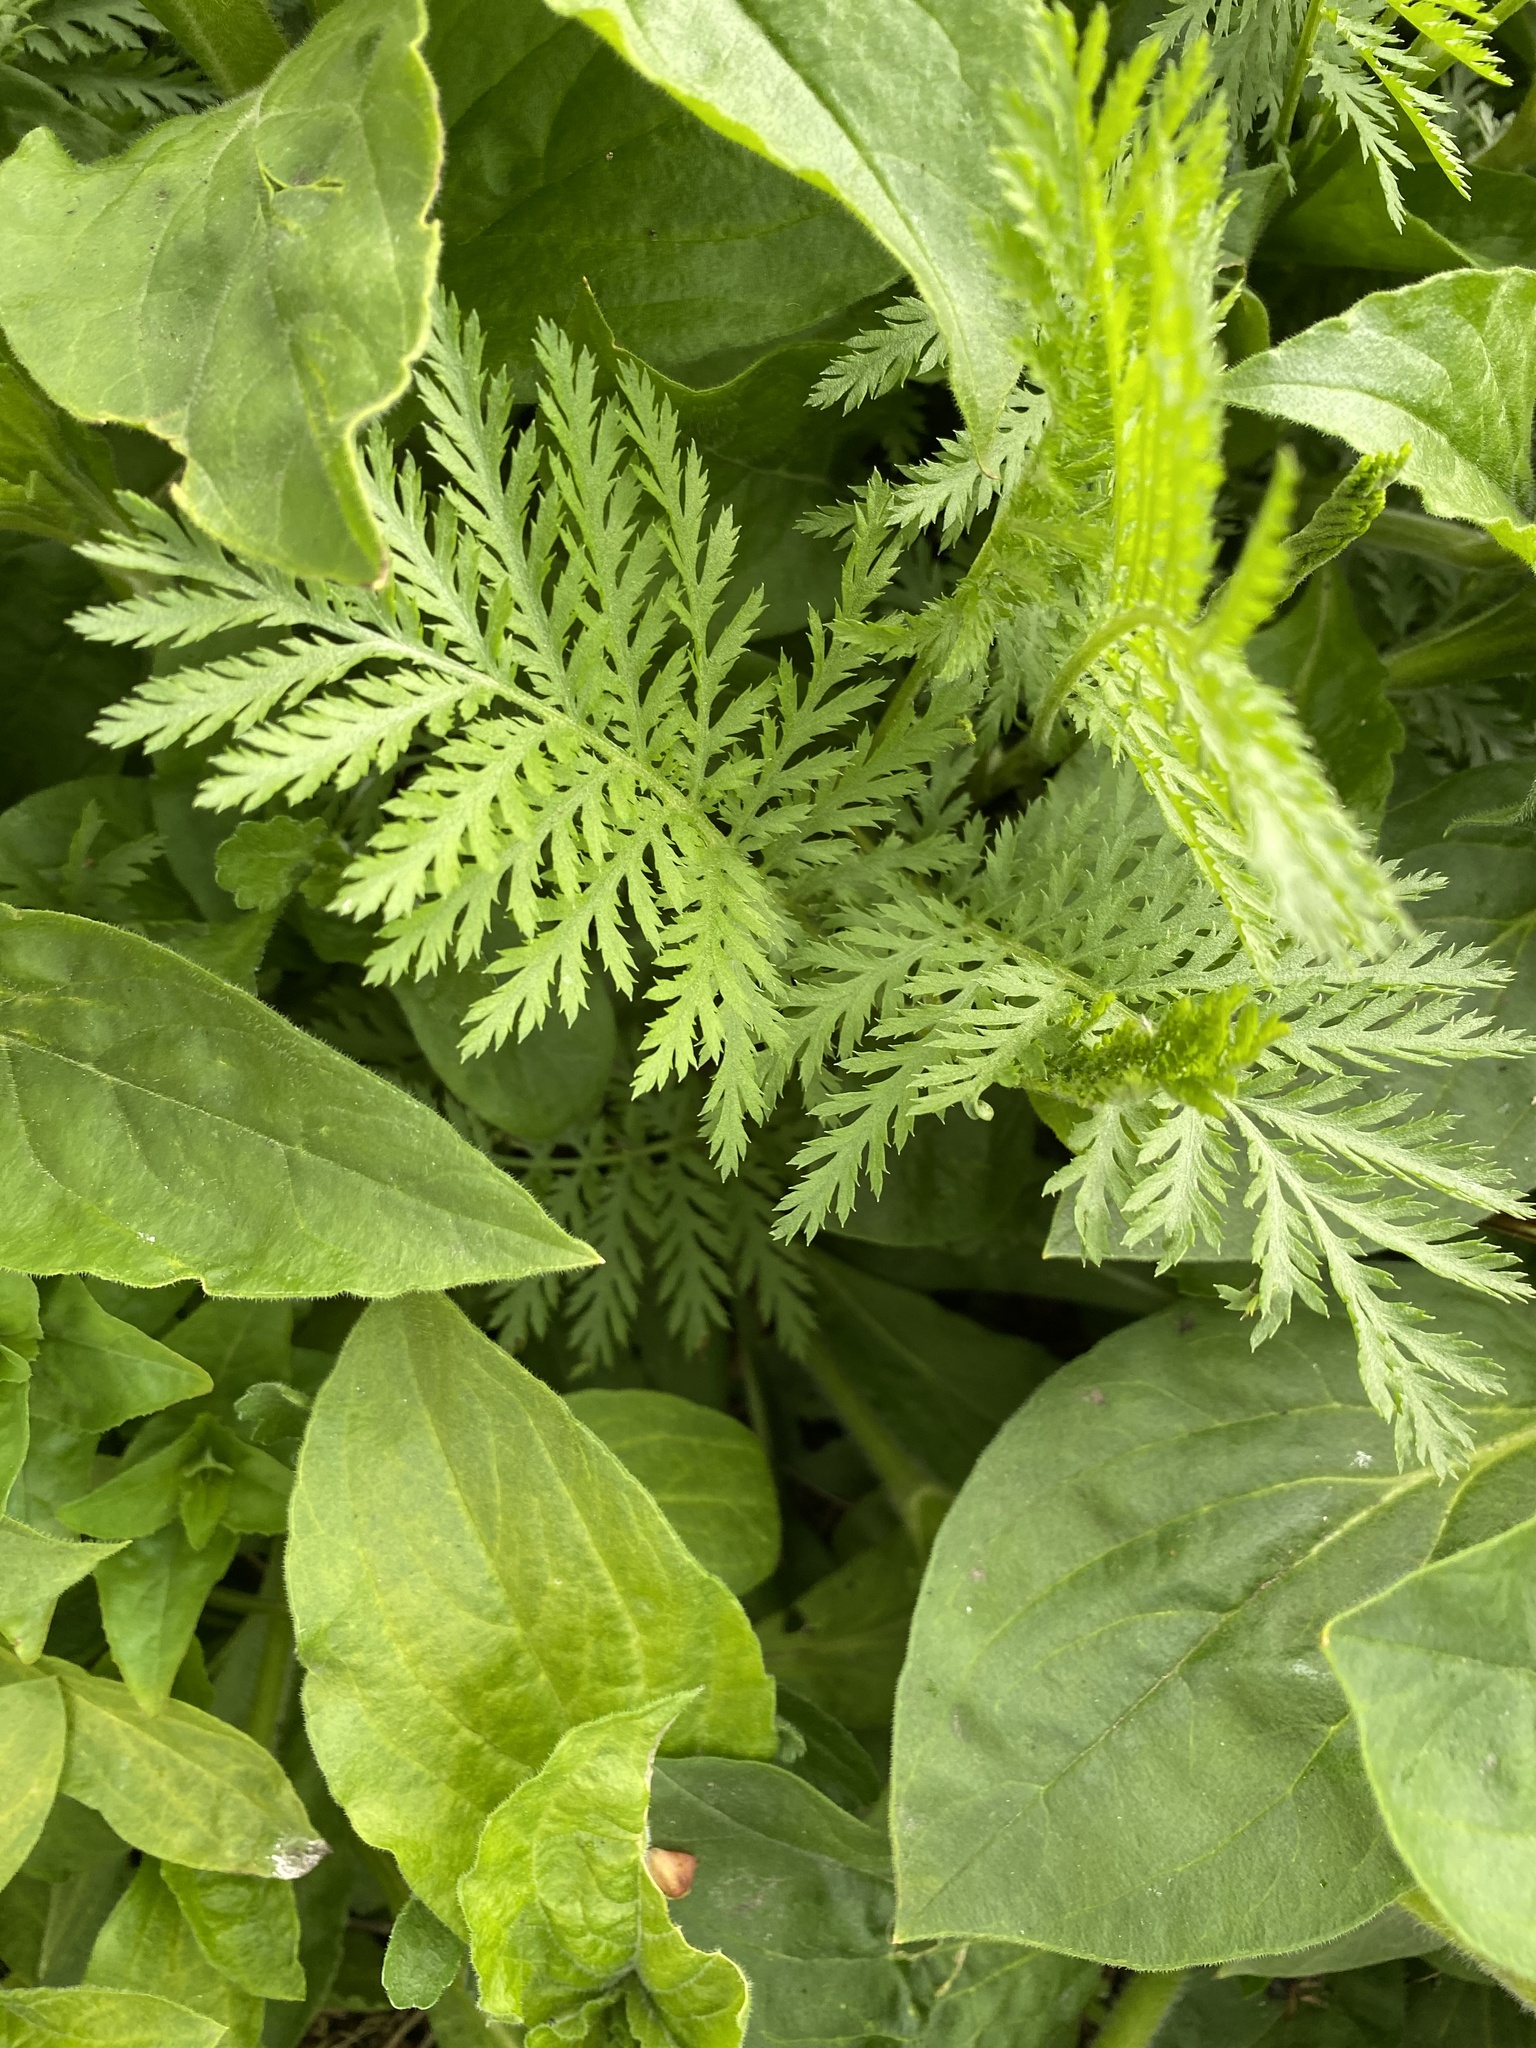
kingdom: Plantae
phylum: Tracheophyta
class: Magnoliopsida
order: Asterales
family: Asteraceae
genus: Tanacetum
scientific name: Tanacetum vulgare
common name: Common tansy
